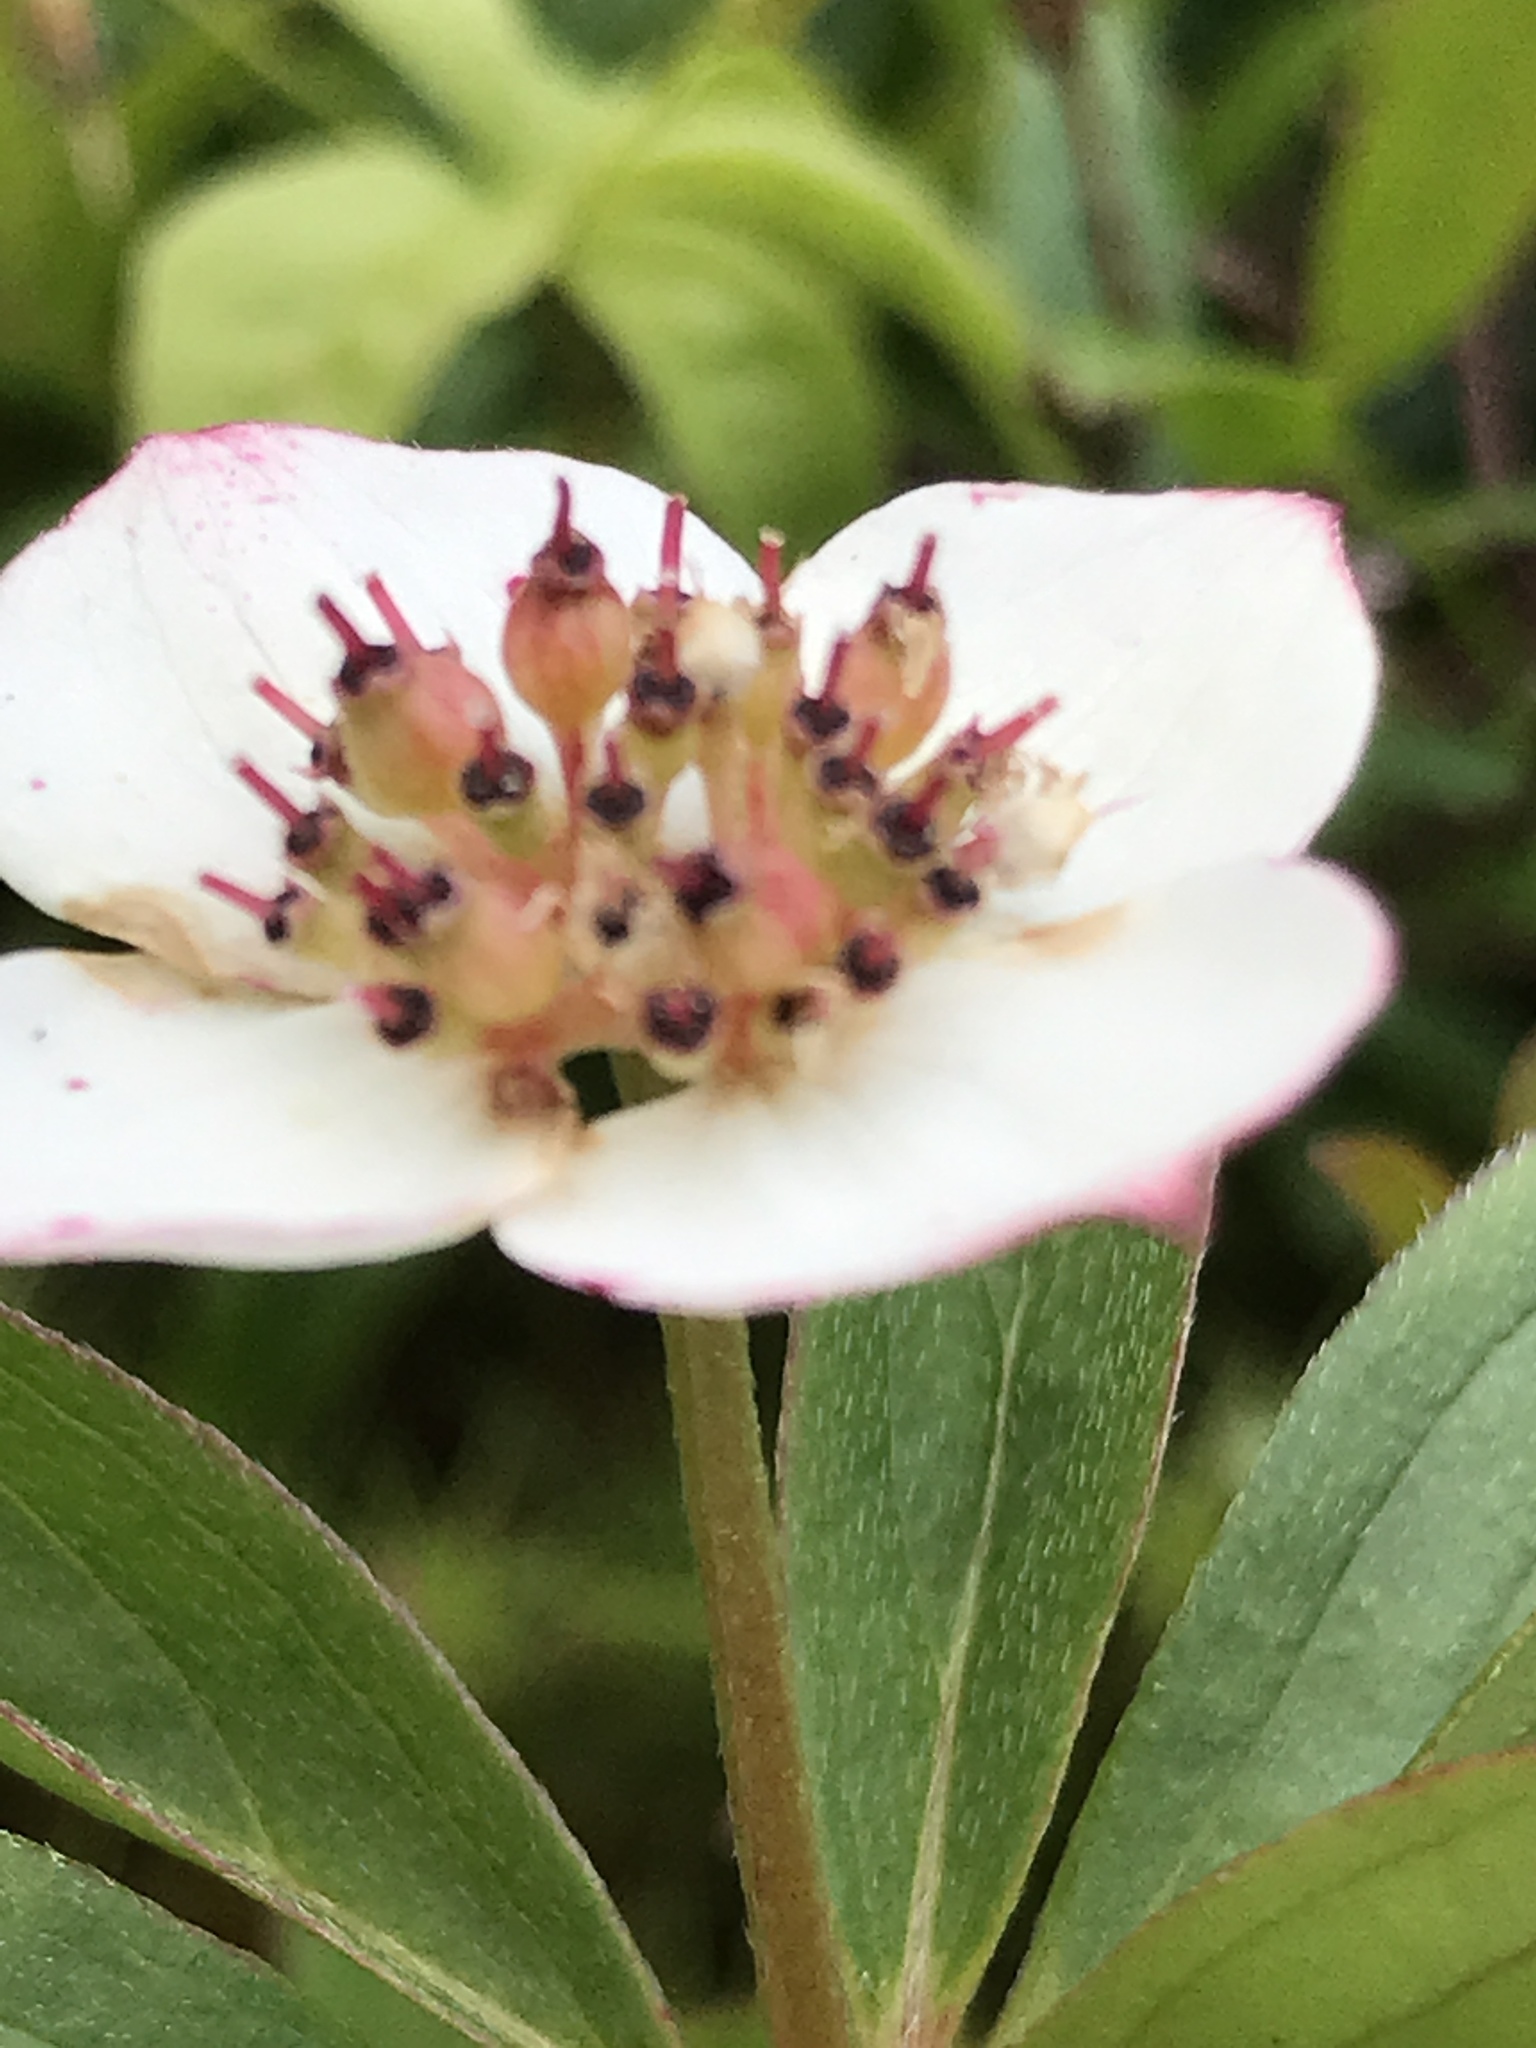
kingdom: Plantae
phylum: Tracheophyta
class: Magnoliopsida
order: Cornales
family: Cornaceae
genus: Cornus
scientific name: Cornus canadensis
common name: Creeping dogwood
